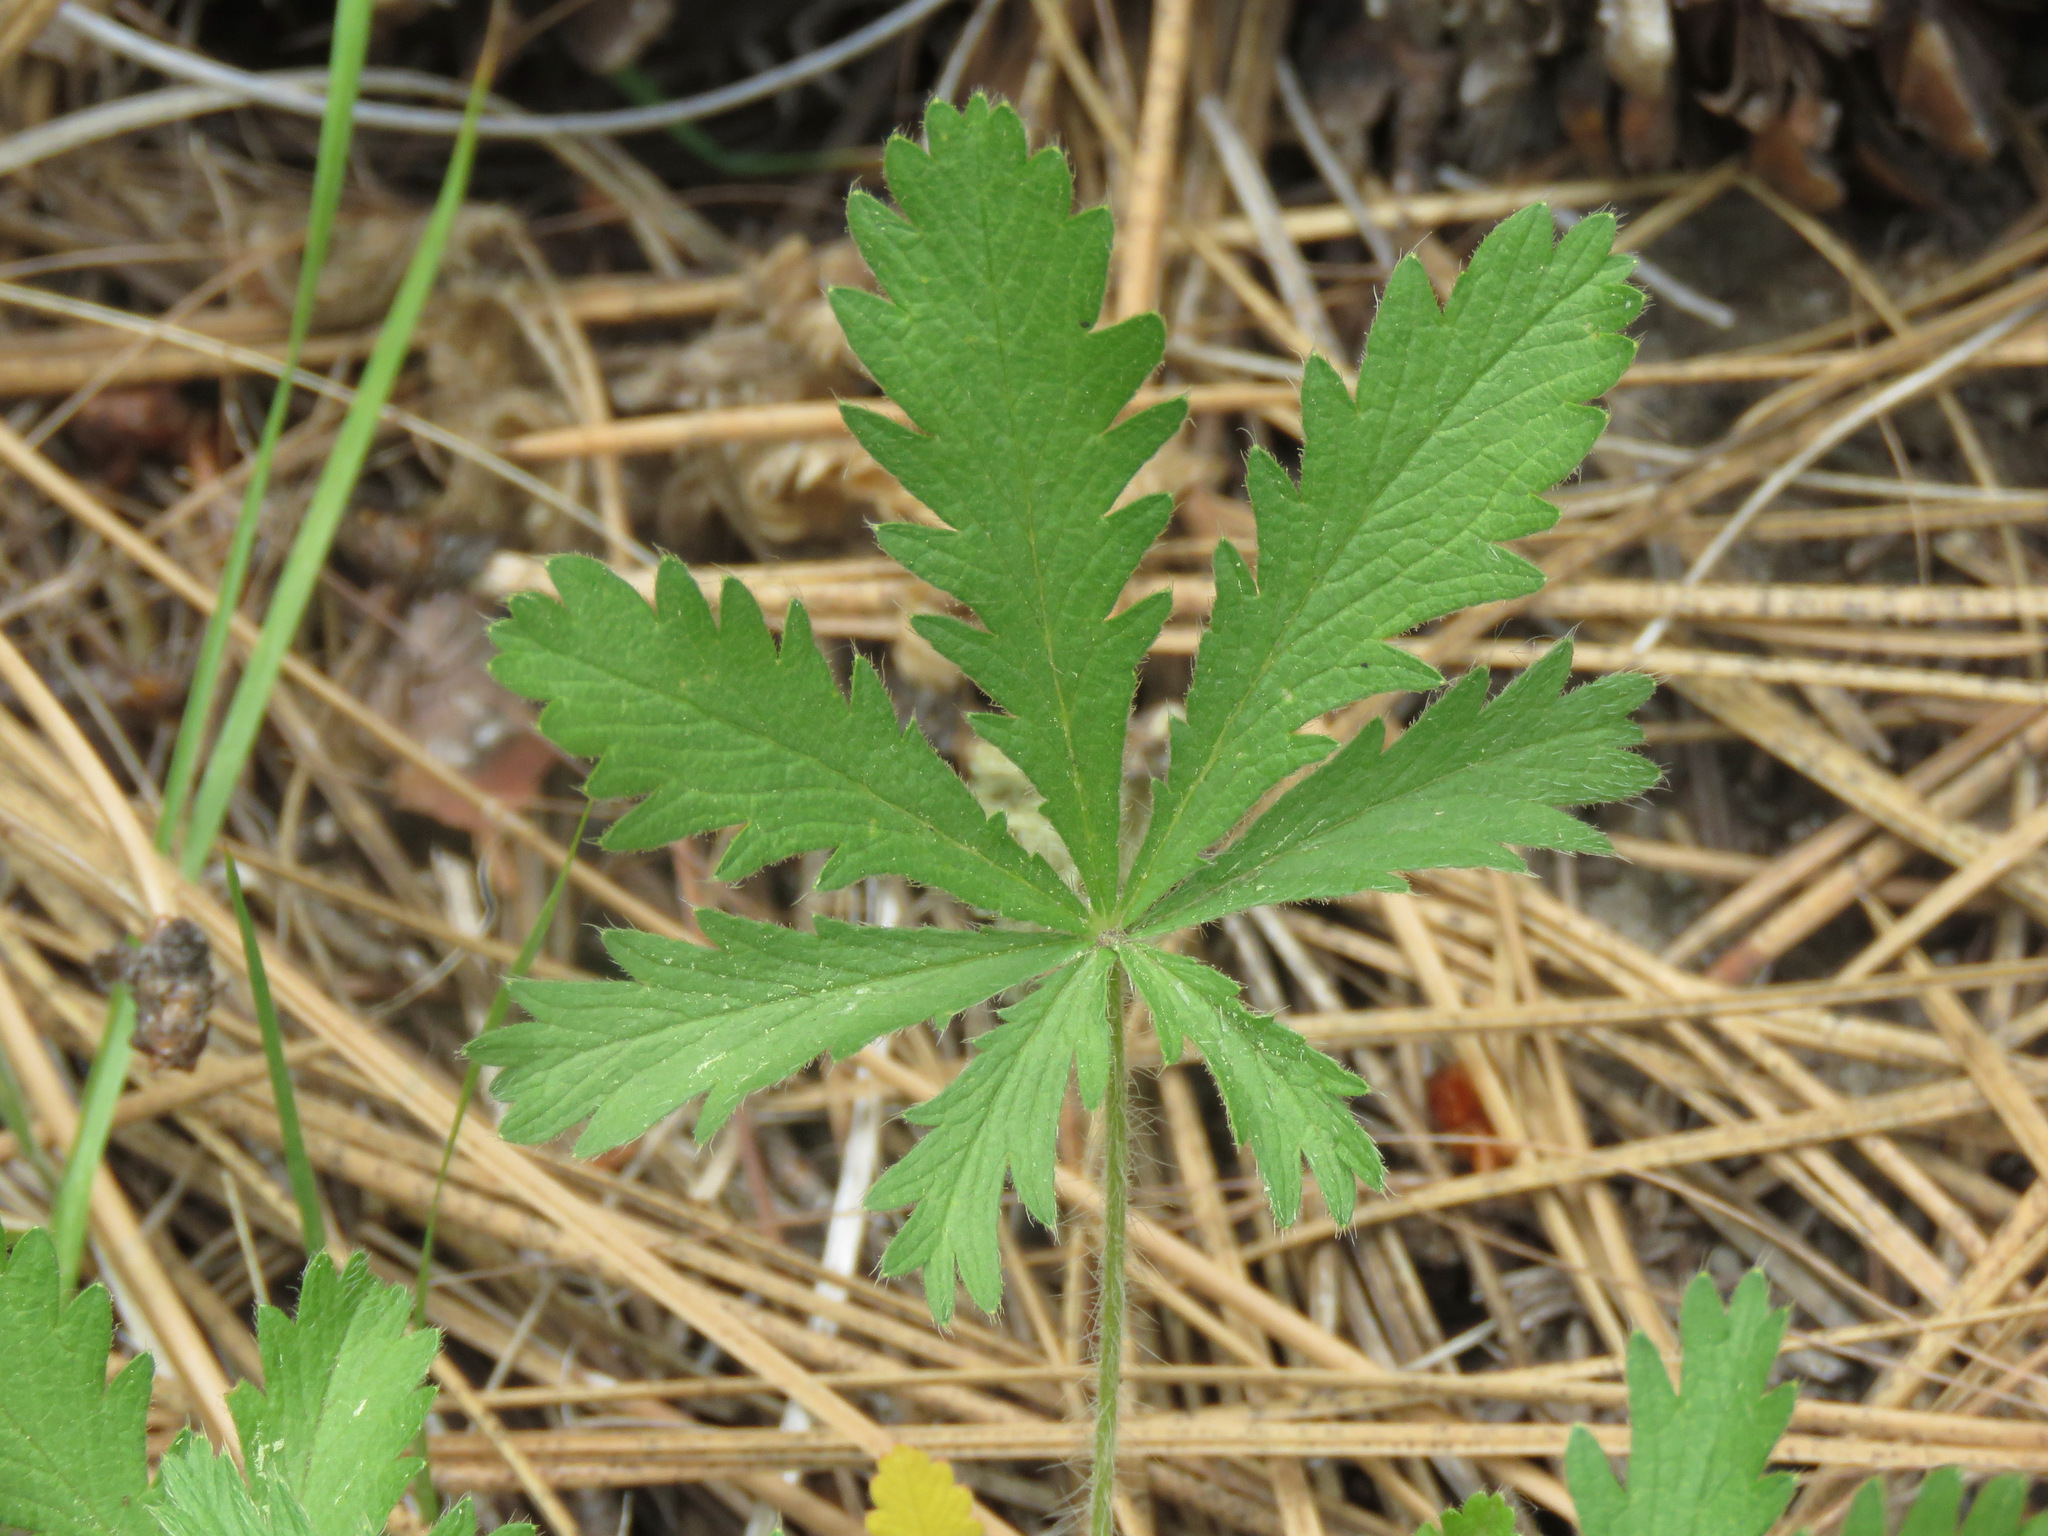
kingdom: Plantae
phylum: Tracheophyta
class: Magnoliopsida
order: Rosales
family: Rosaceae
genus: Potentilla
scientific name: Potentilla recta
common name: Sulphur cinquefoil
